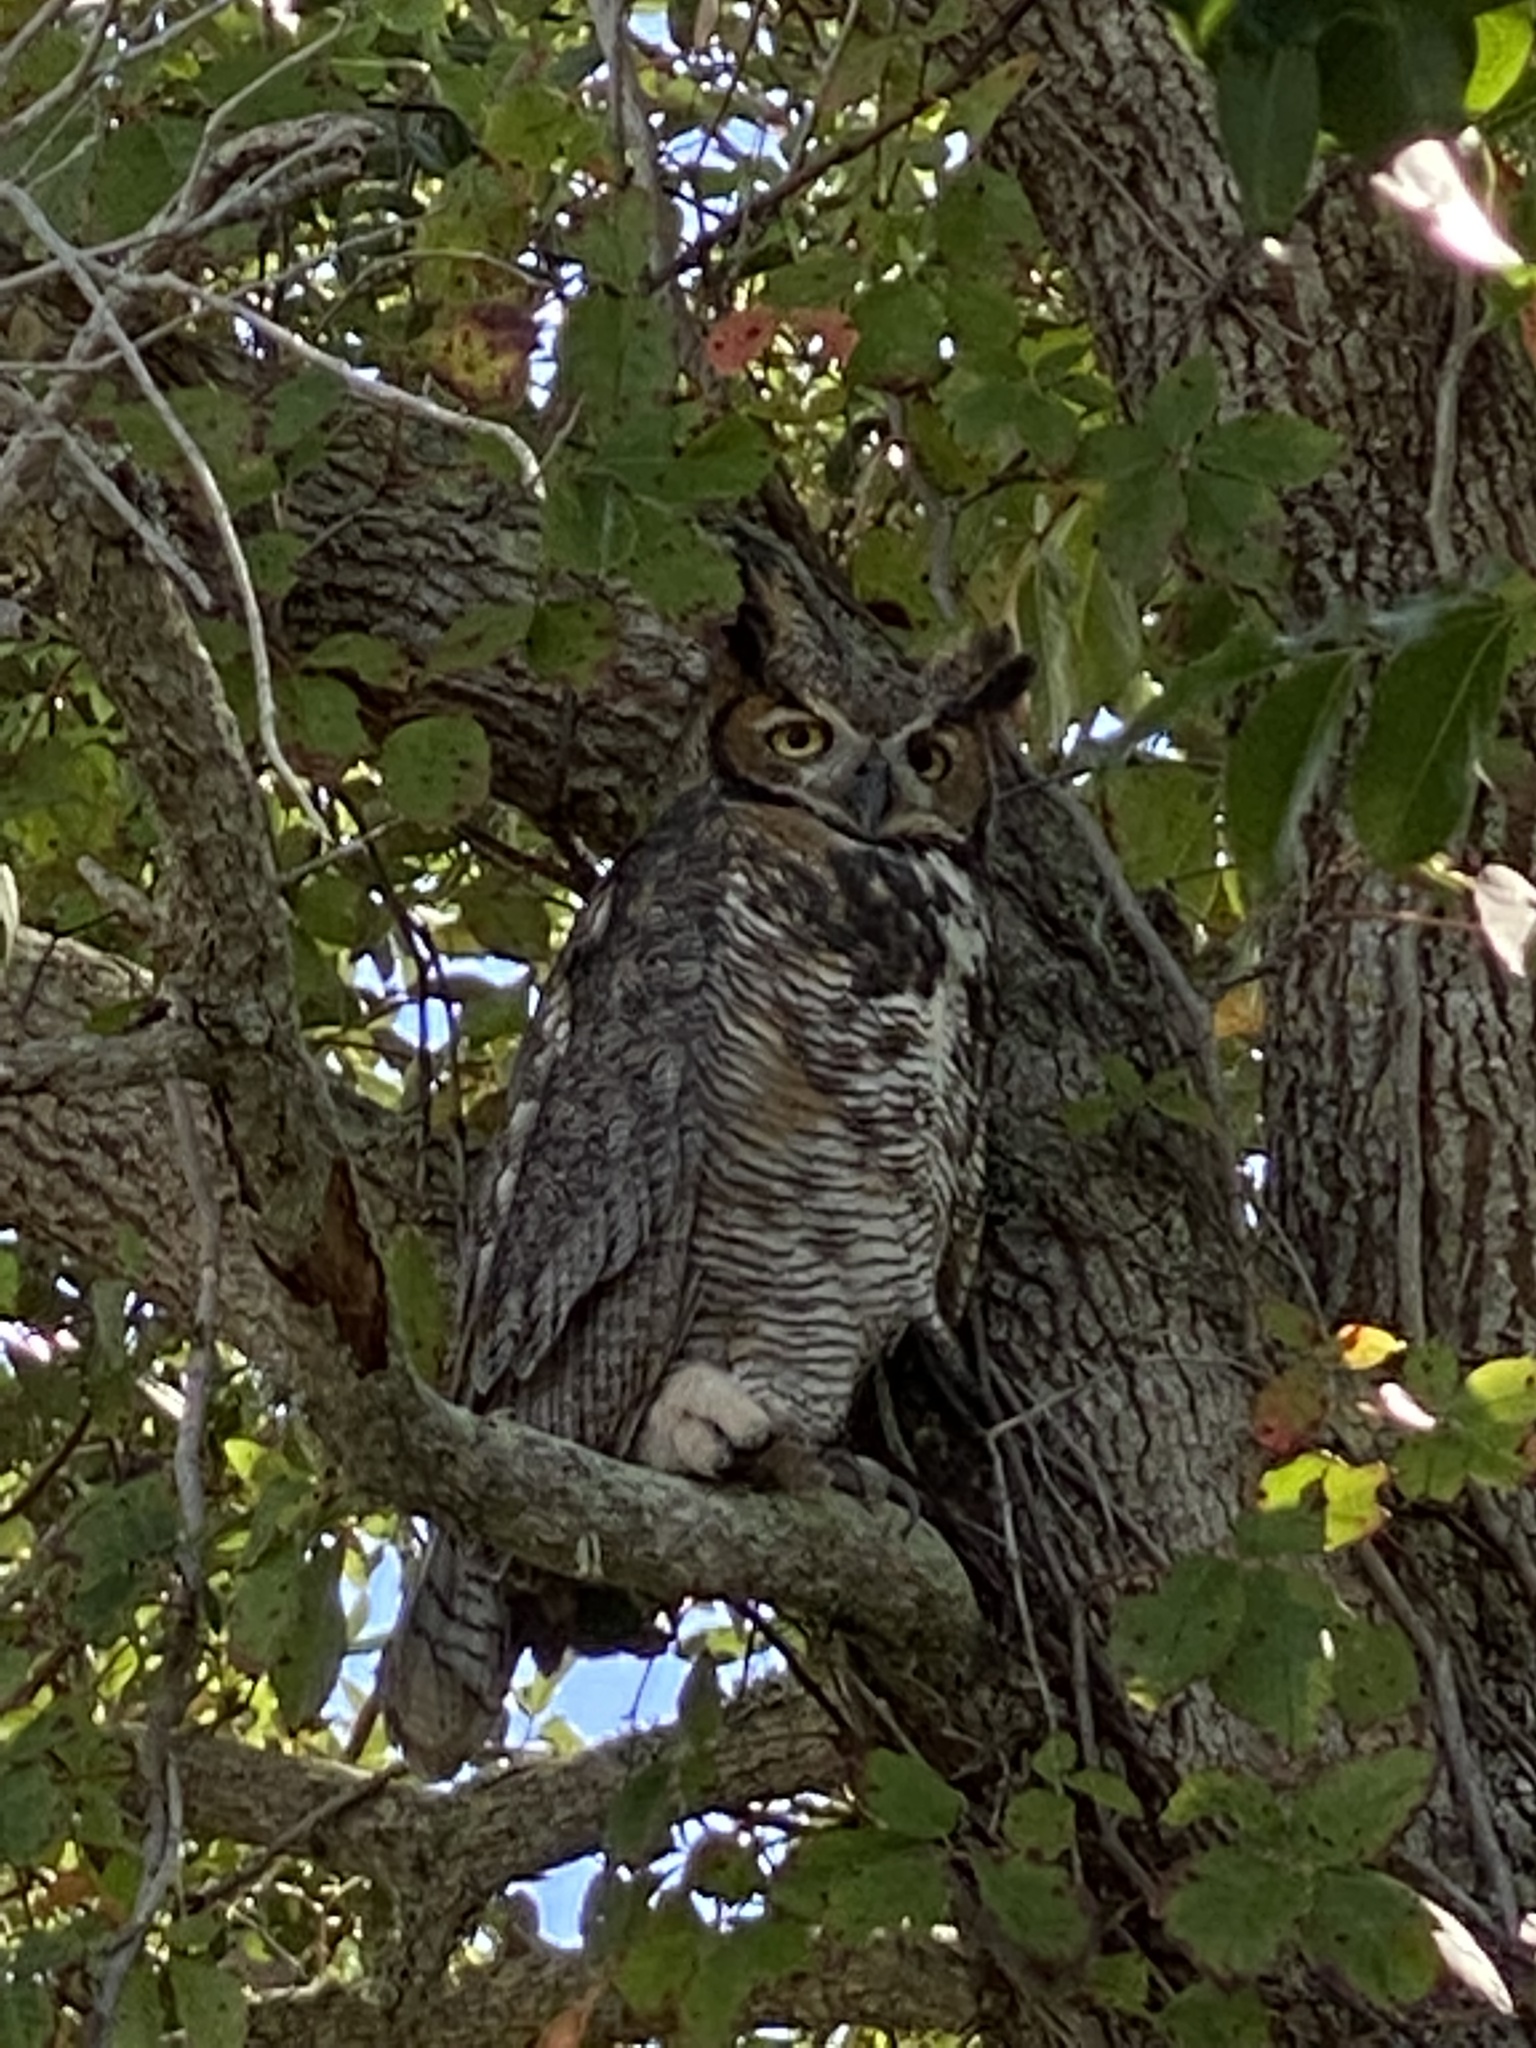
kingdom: Animalia
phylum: Chordata
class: Aves
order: Strigiformes
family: Strigidae
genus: Bubo
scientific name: Bubo virginianus
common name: Great horned owl
